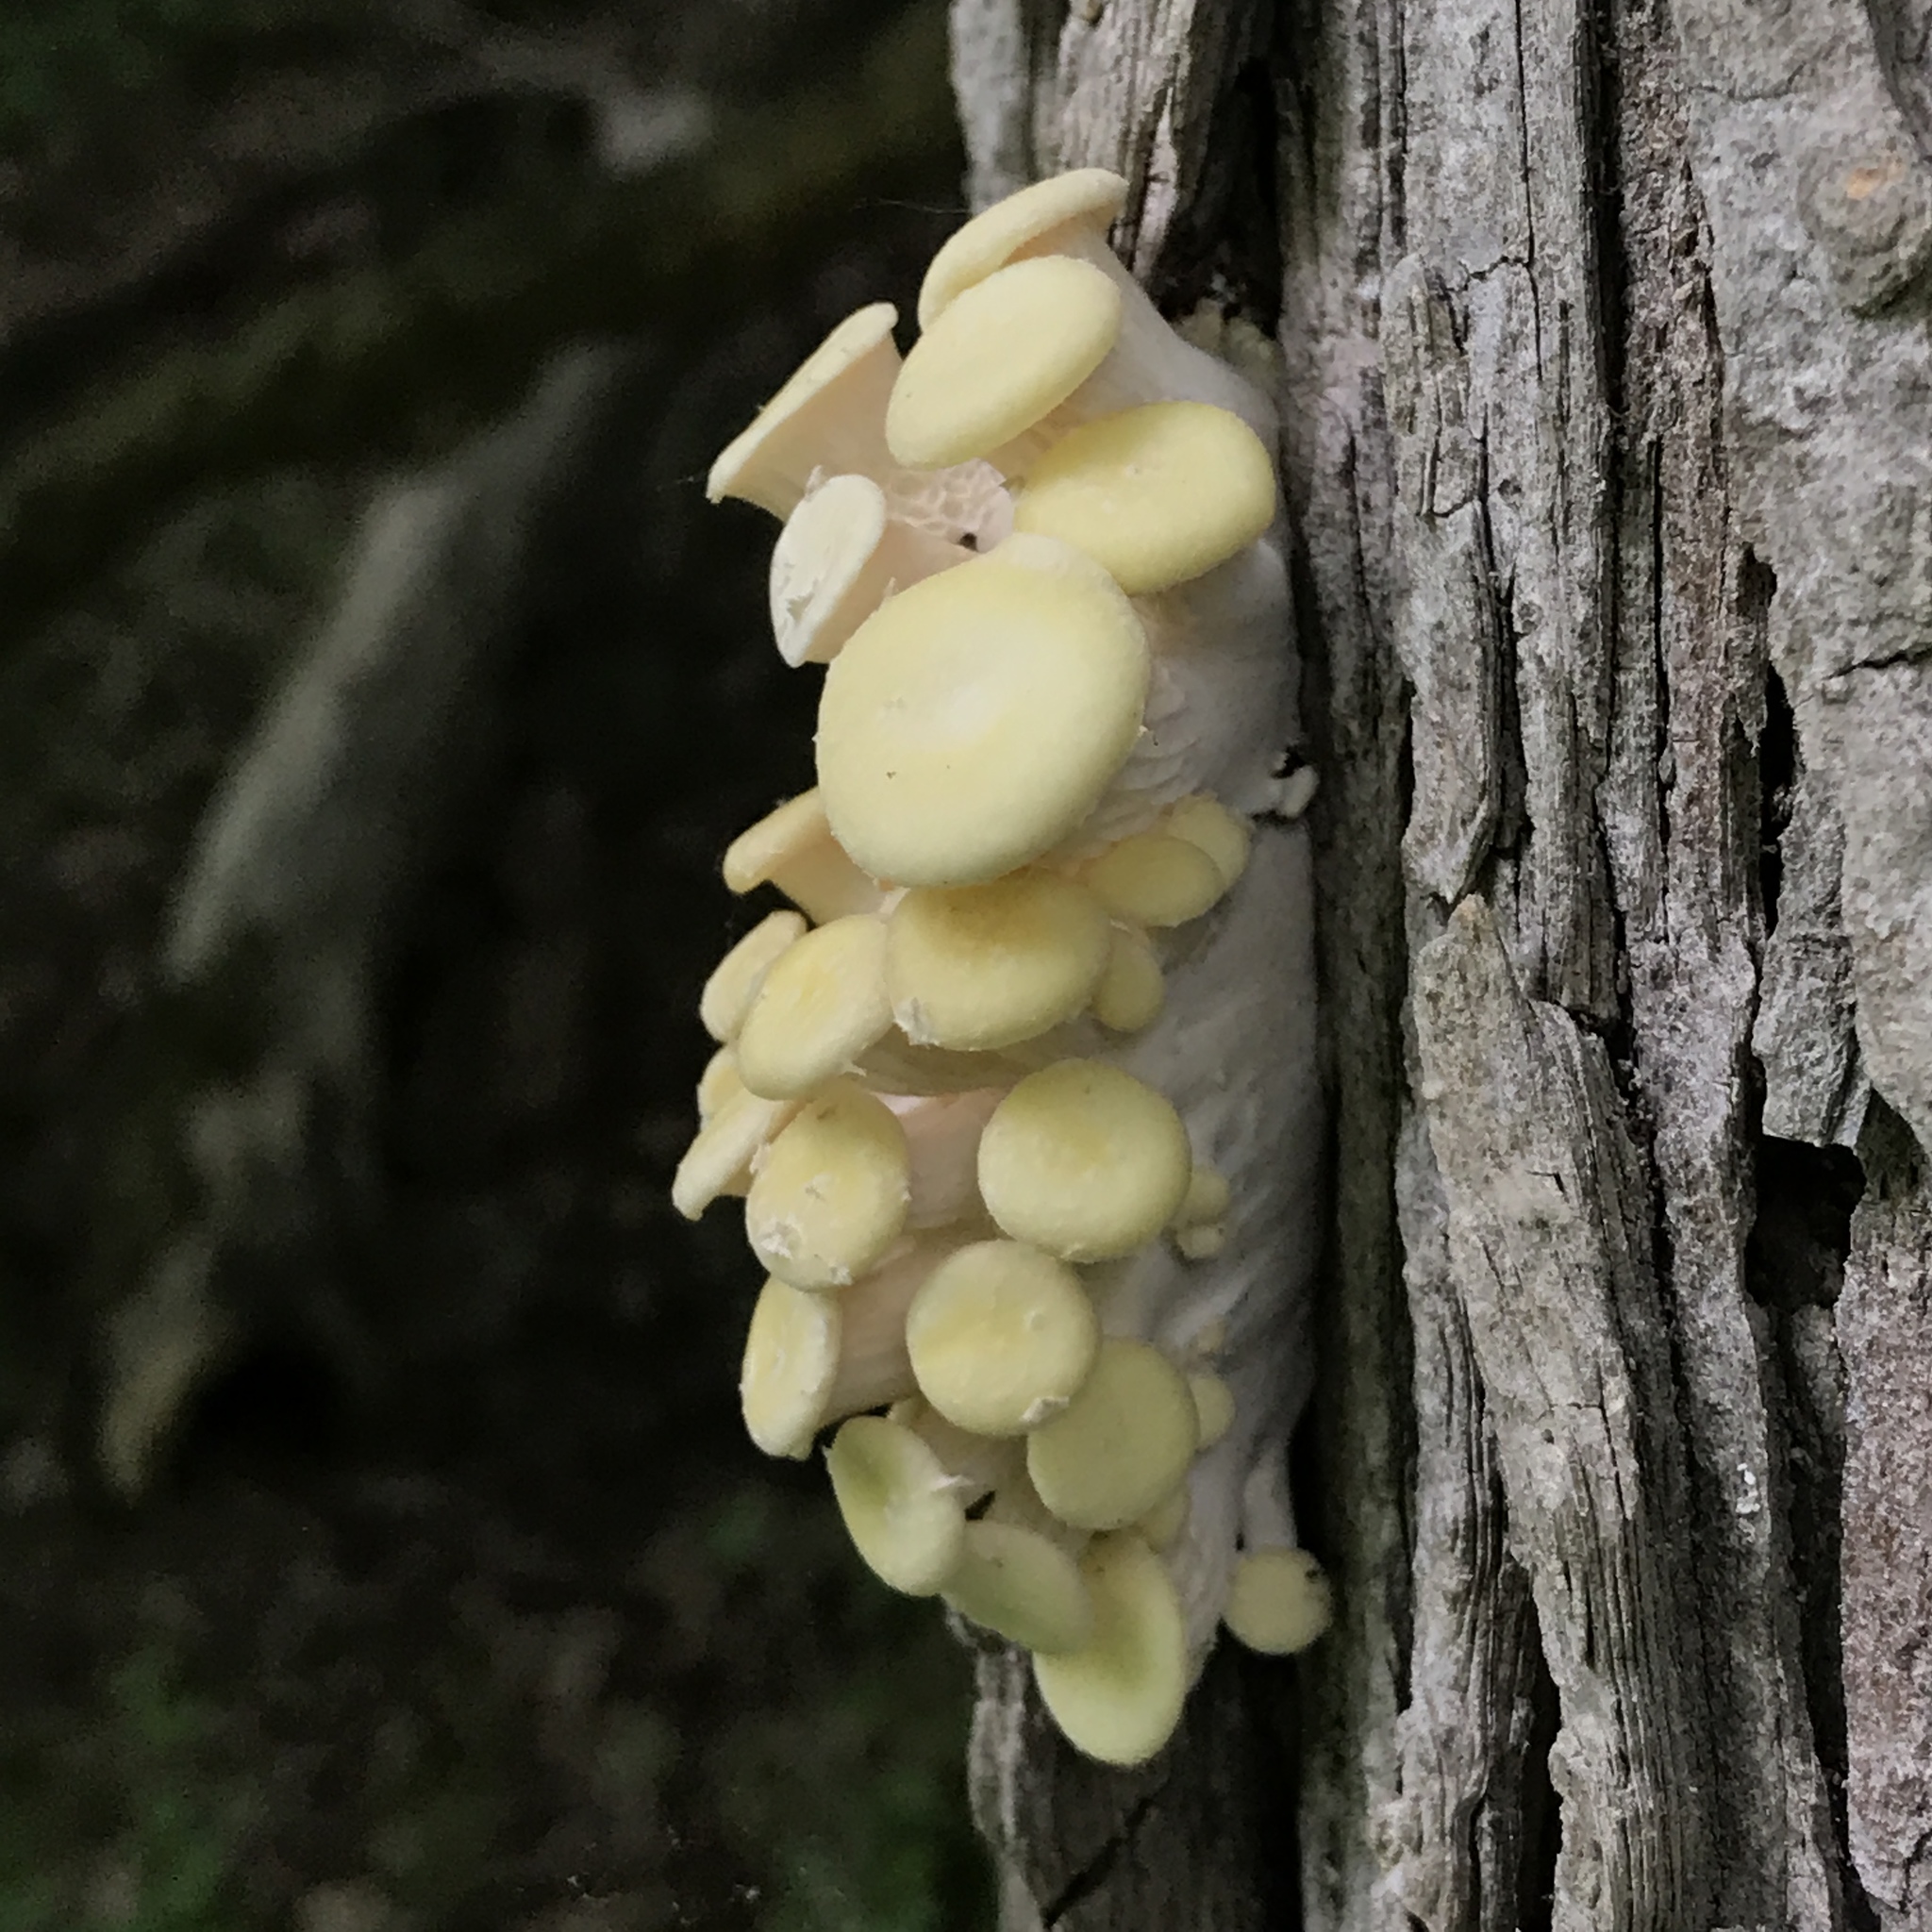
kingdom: Fungi
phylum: Basidiomycota
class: Agaricomycetes
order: Agaricales
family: Pleurotaceae
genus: Pleurotus
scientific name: Pleurotus citrinopileatus
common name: Golden oyster mushroom
